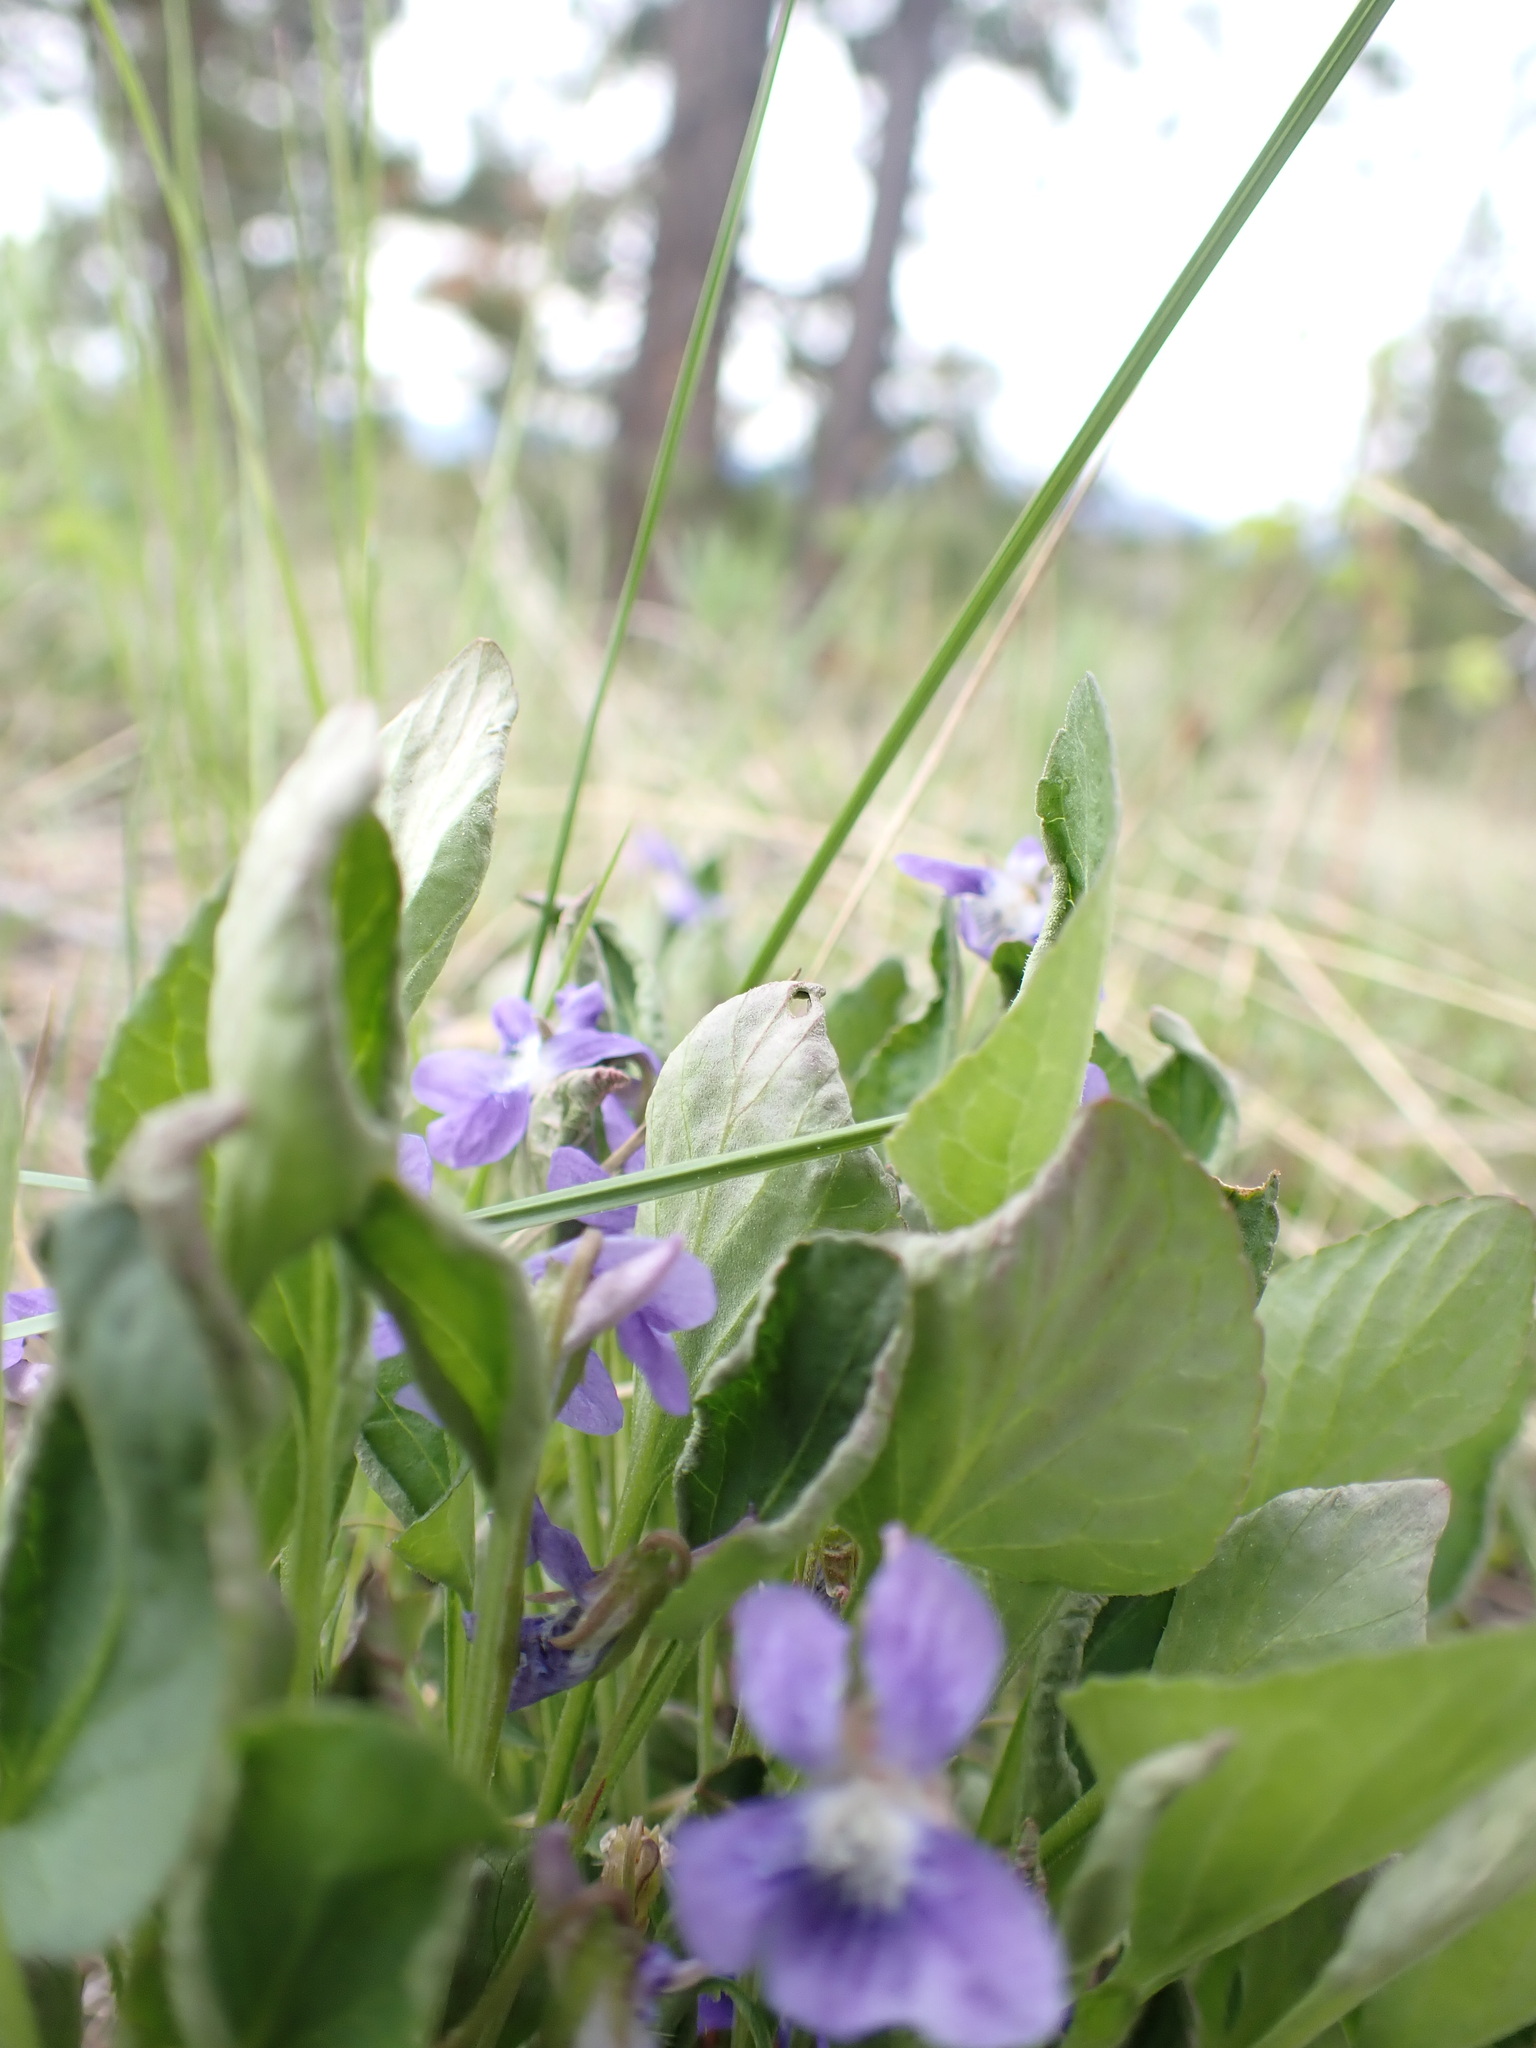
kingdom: Plantae
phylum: Tracheophyta
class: Magnoliopsida
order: Malpighiales
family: Violaceae
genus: Viola
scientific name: Viola adunca
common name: Sand violet
